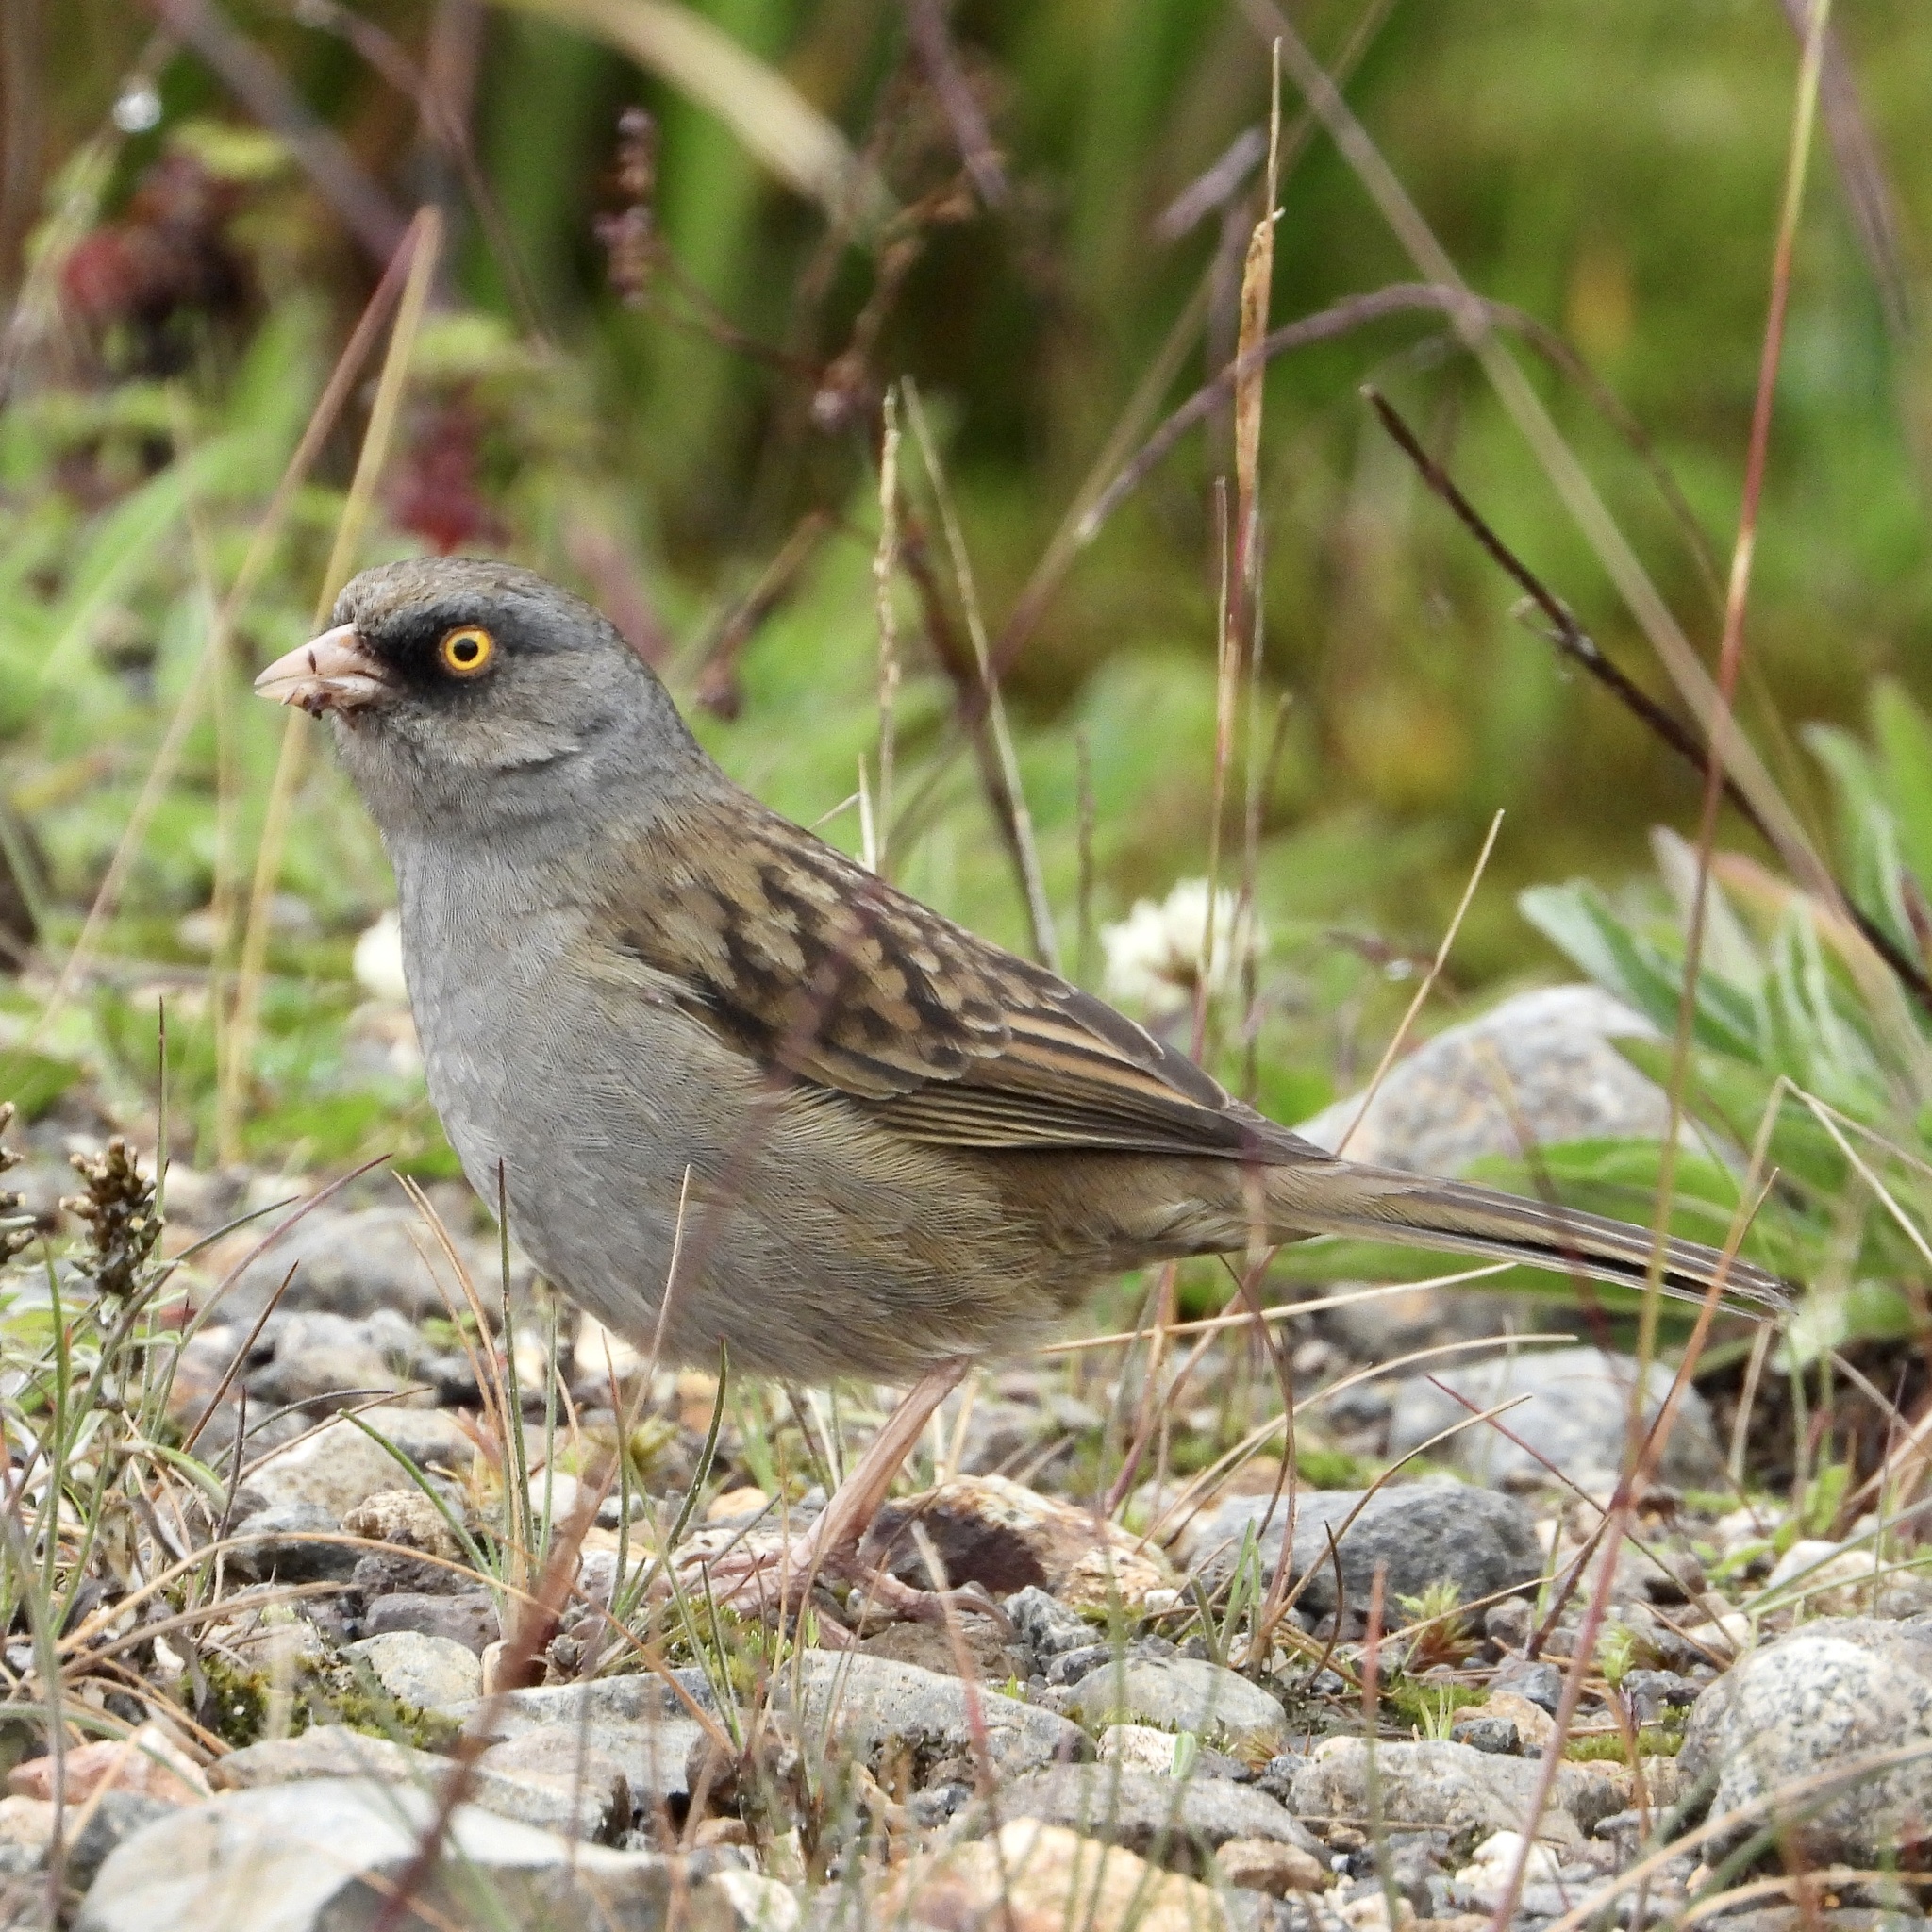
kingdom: Animalia
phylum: Chordata
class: Aves
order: Passeriformes
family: Passerellidae
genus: Junco
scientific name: Junco vulcani
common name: Volcano junco
